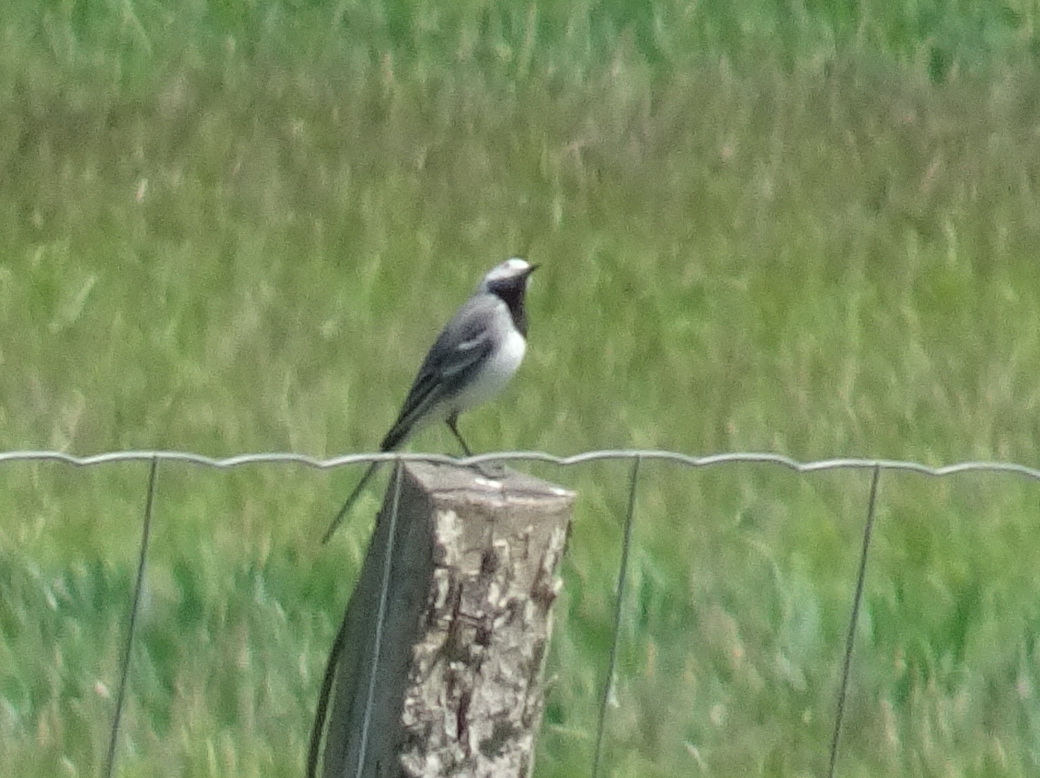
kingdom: Animalia
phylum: Chordata
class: Aves
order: Passeriformes
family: Motacillidae
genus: Motacilla
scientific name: Motacilla alba
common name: White wagtail
